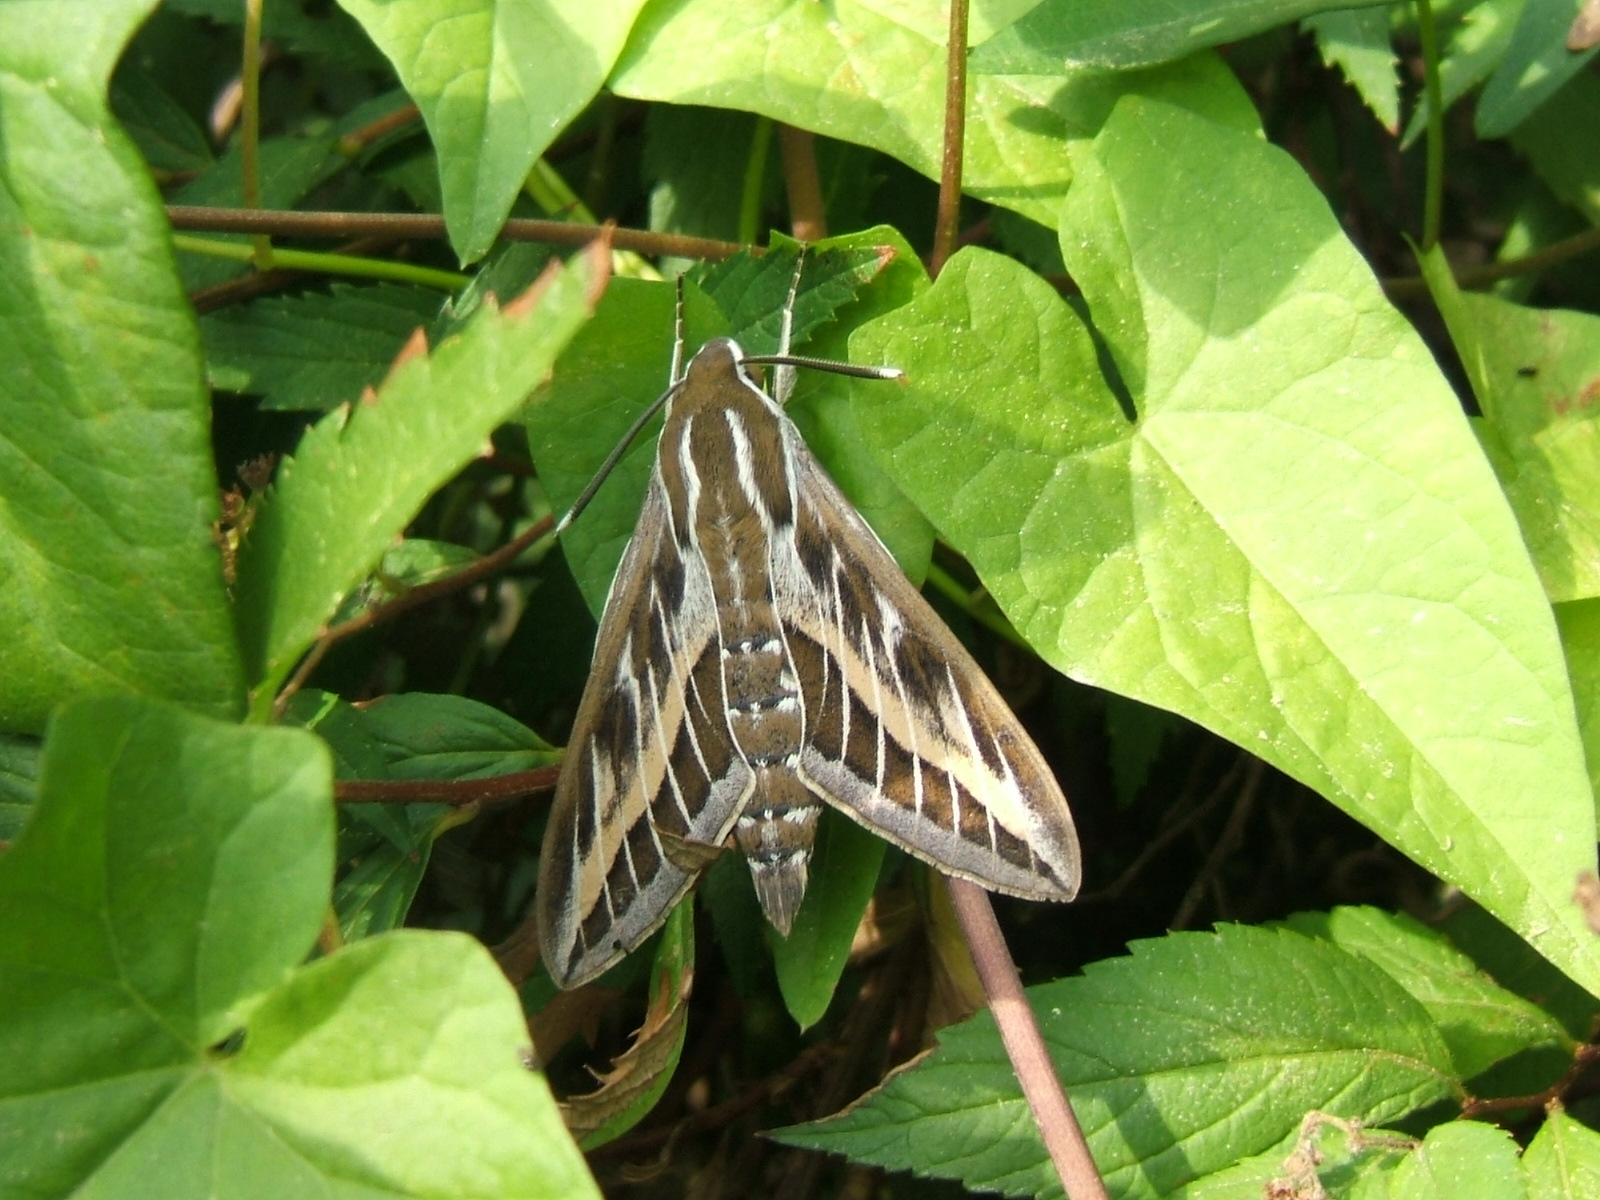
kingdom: Animalia
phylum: Arthropoda
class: Insecta
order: Lepidoptera
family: Sphingidae
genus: Hyles
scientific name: Hyles livornica
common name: Striped hawk-moth
